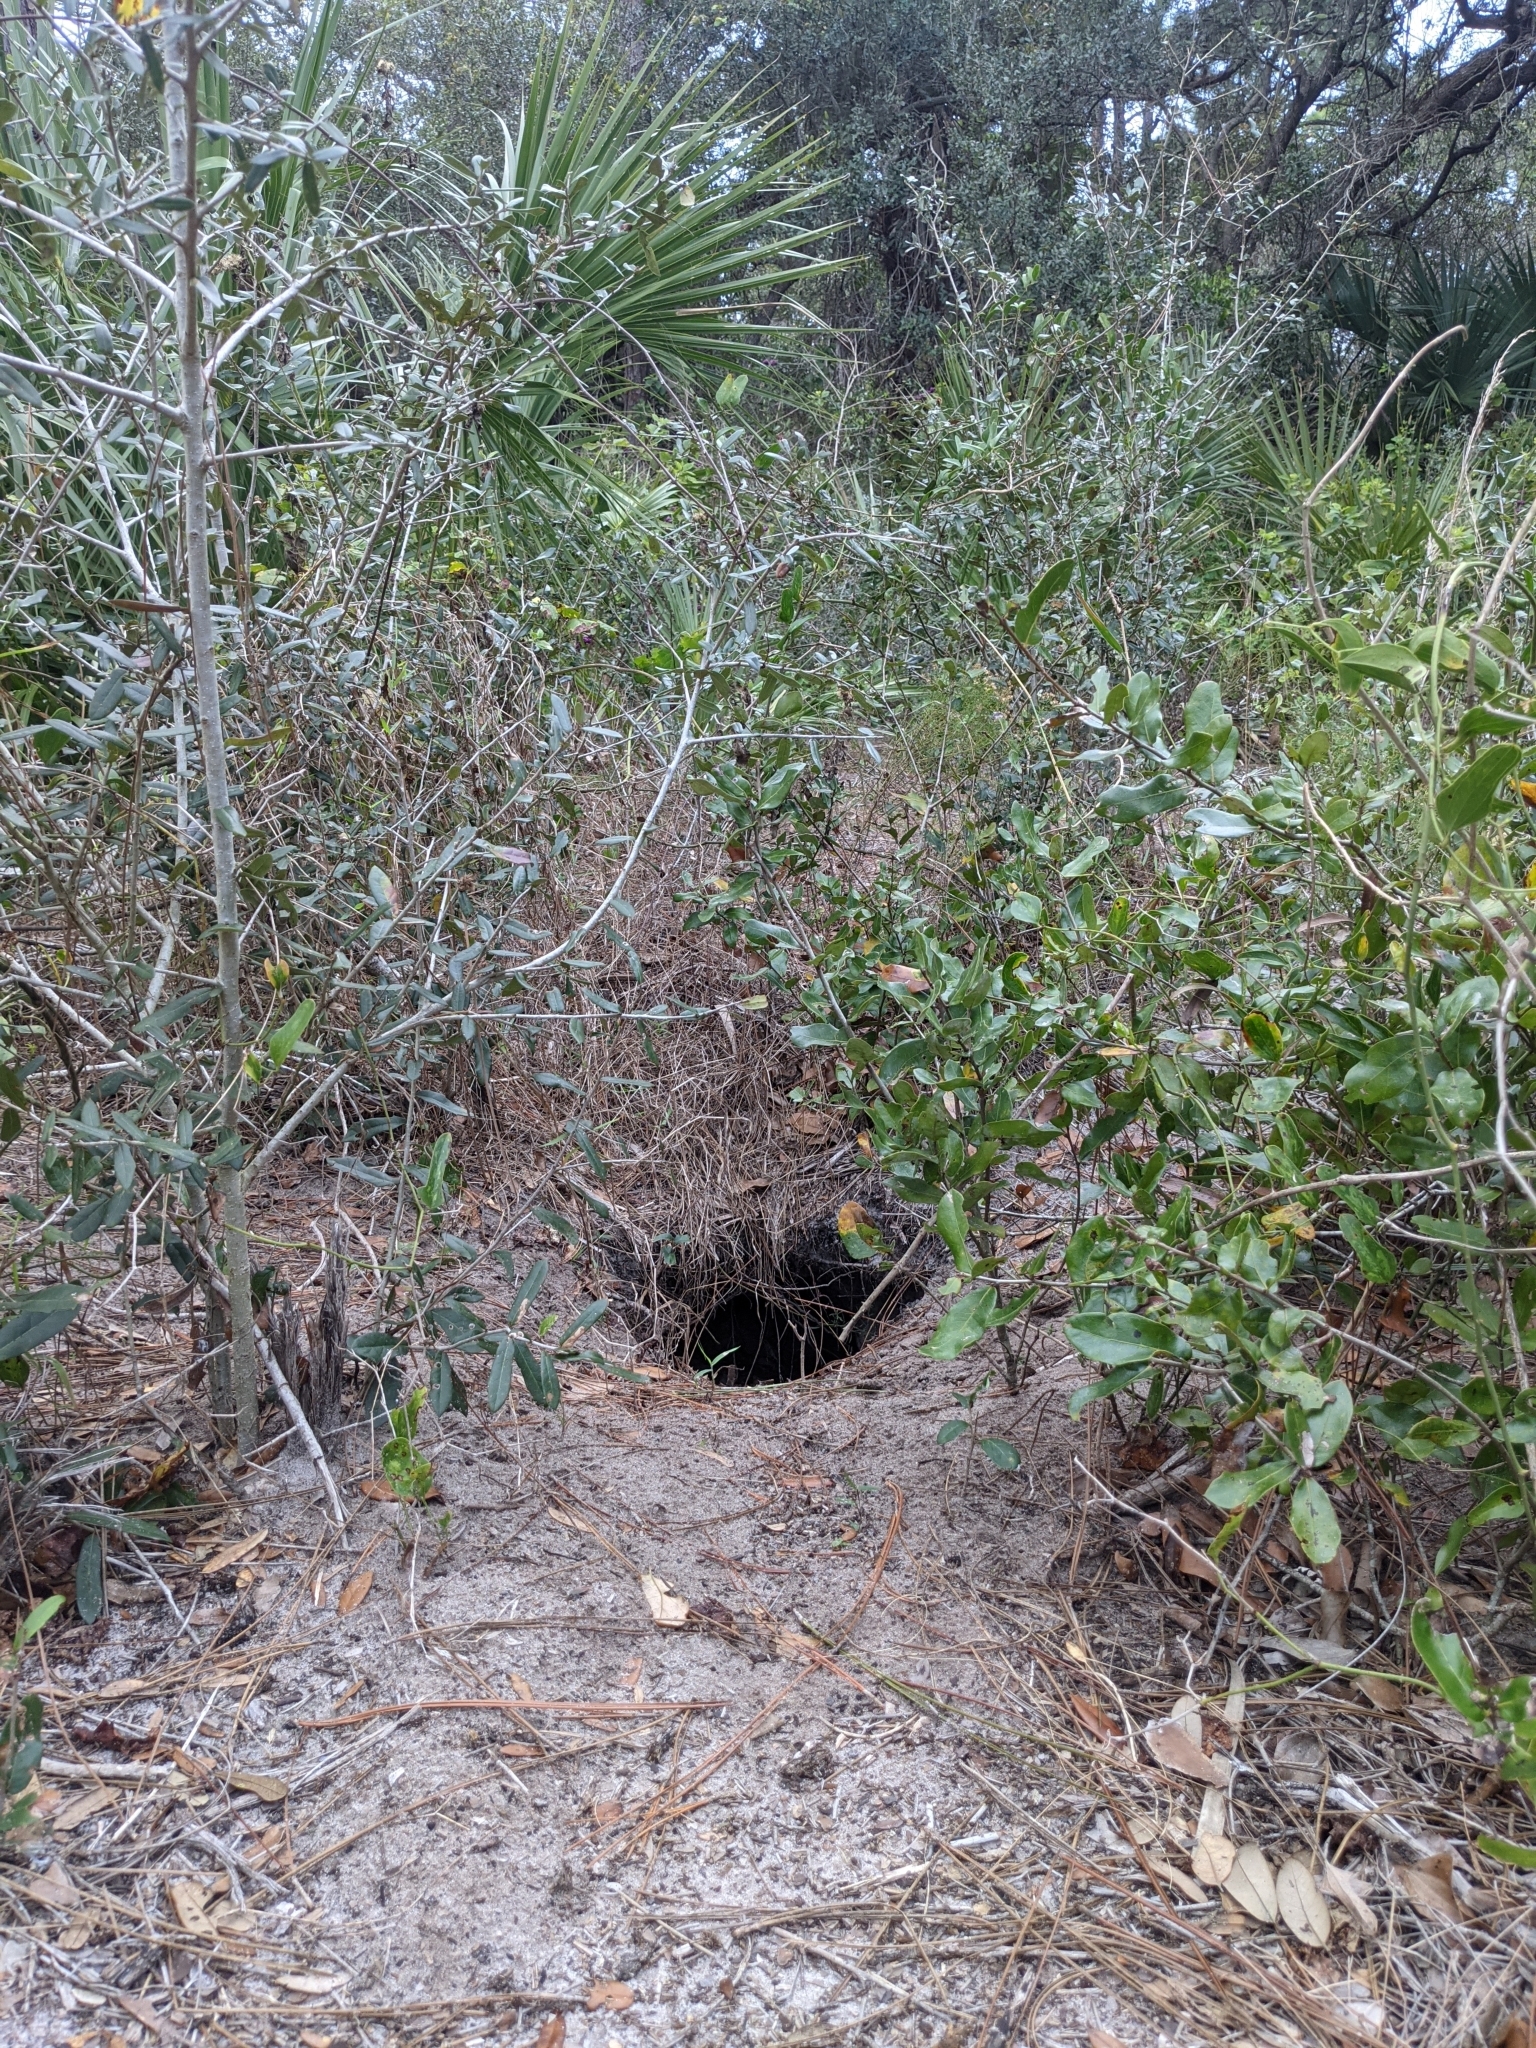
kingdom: Animalia
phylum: Chordata
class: Testudines
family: Testudinidae
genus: Gopherus
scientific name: Gopherus polyphemus
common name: Florida gopher tortoise
